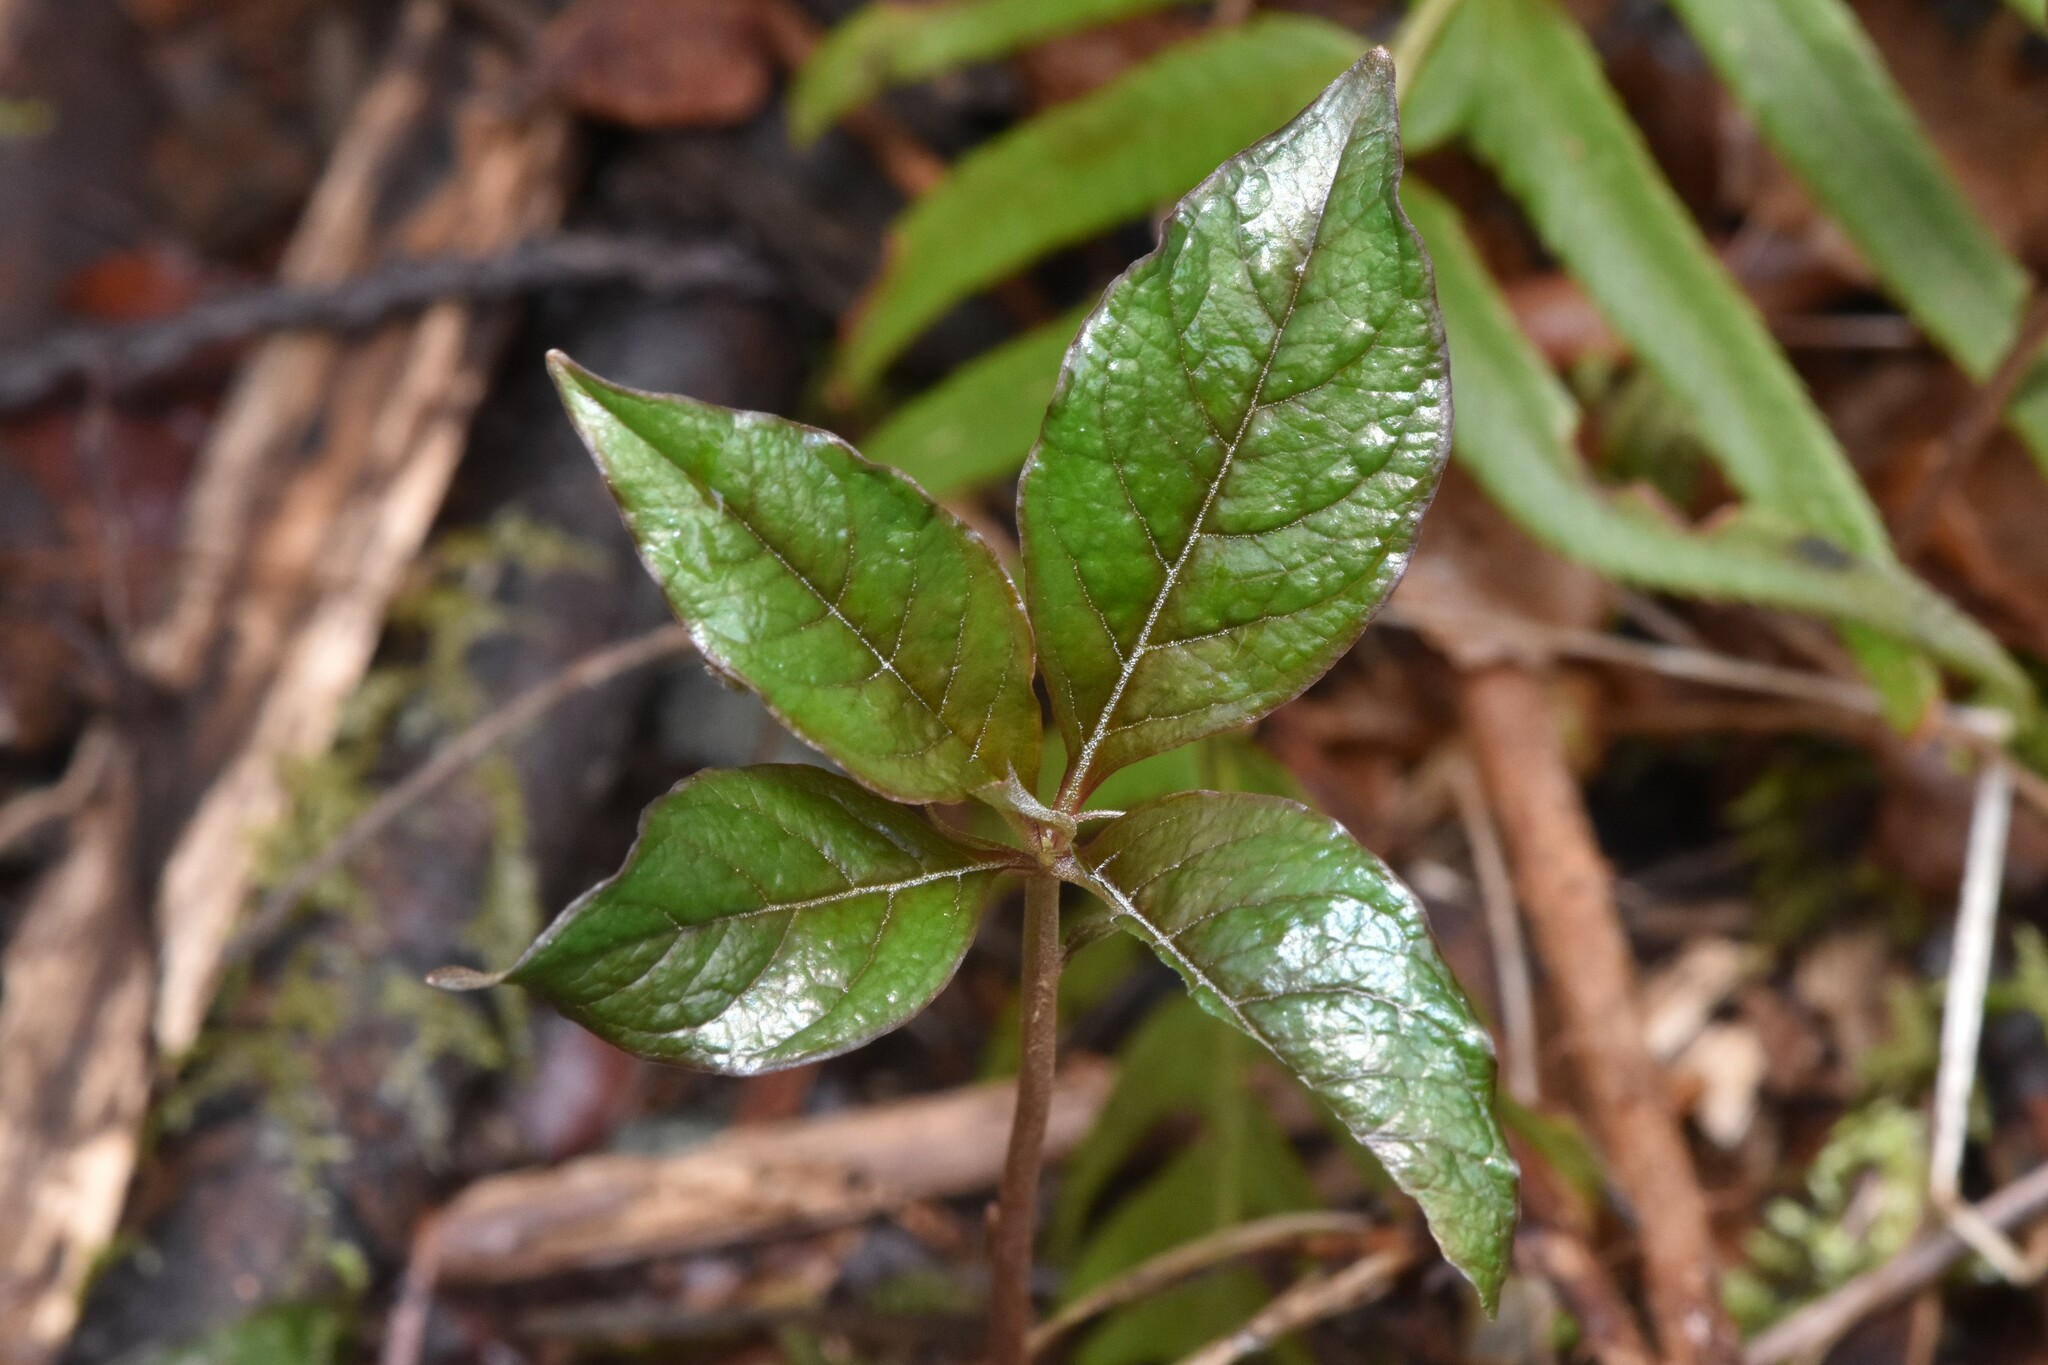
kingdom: Plantae
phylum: Tracheophyta
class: Magnoliopsida
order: Ericales
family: Primulaceae
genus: Lysimachia
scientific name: Lysimachia latifolia
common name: Pacific starflower
